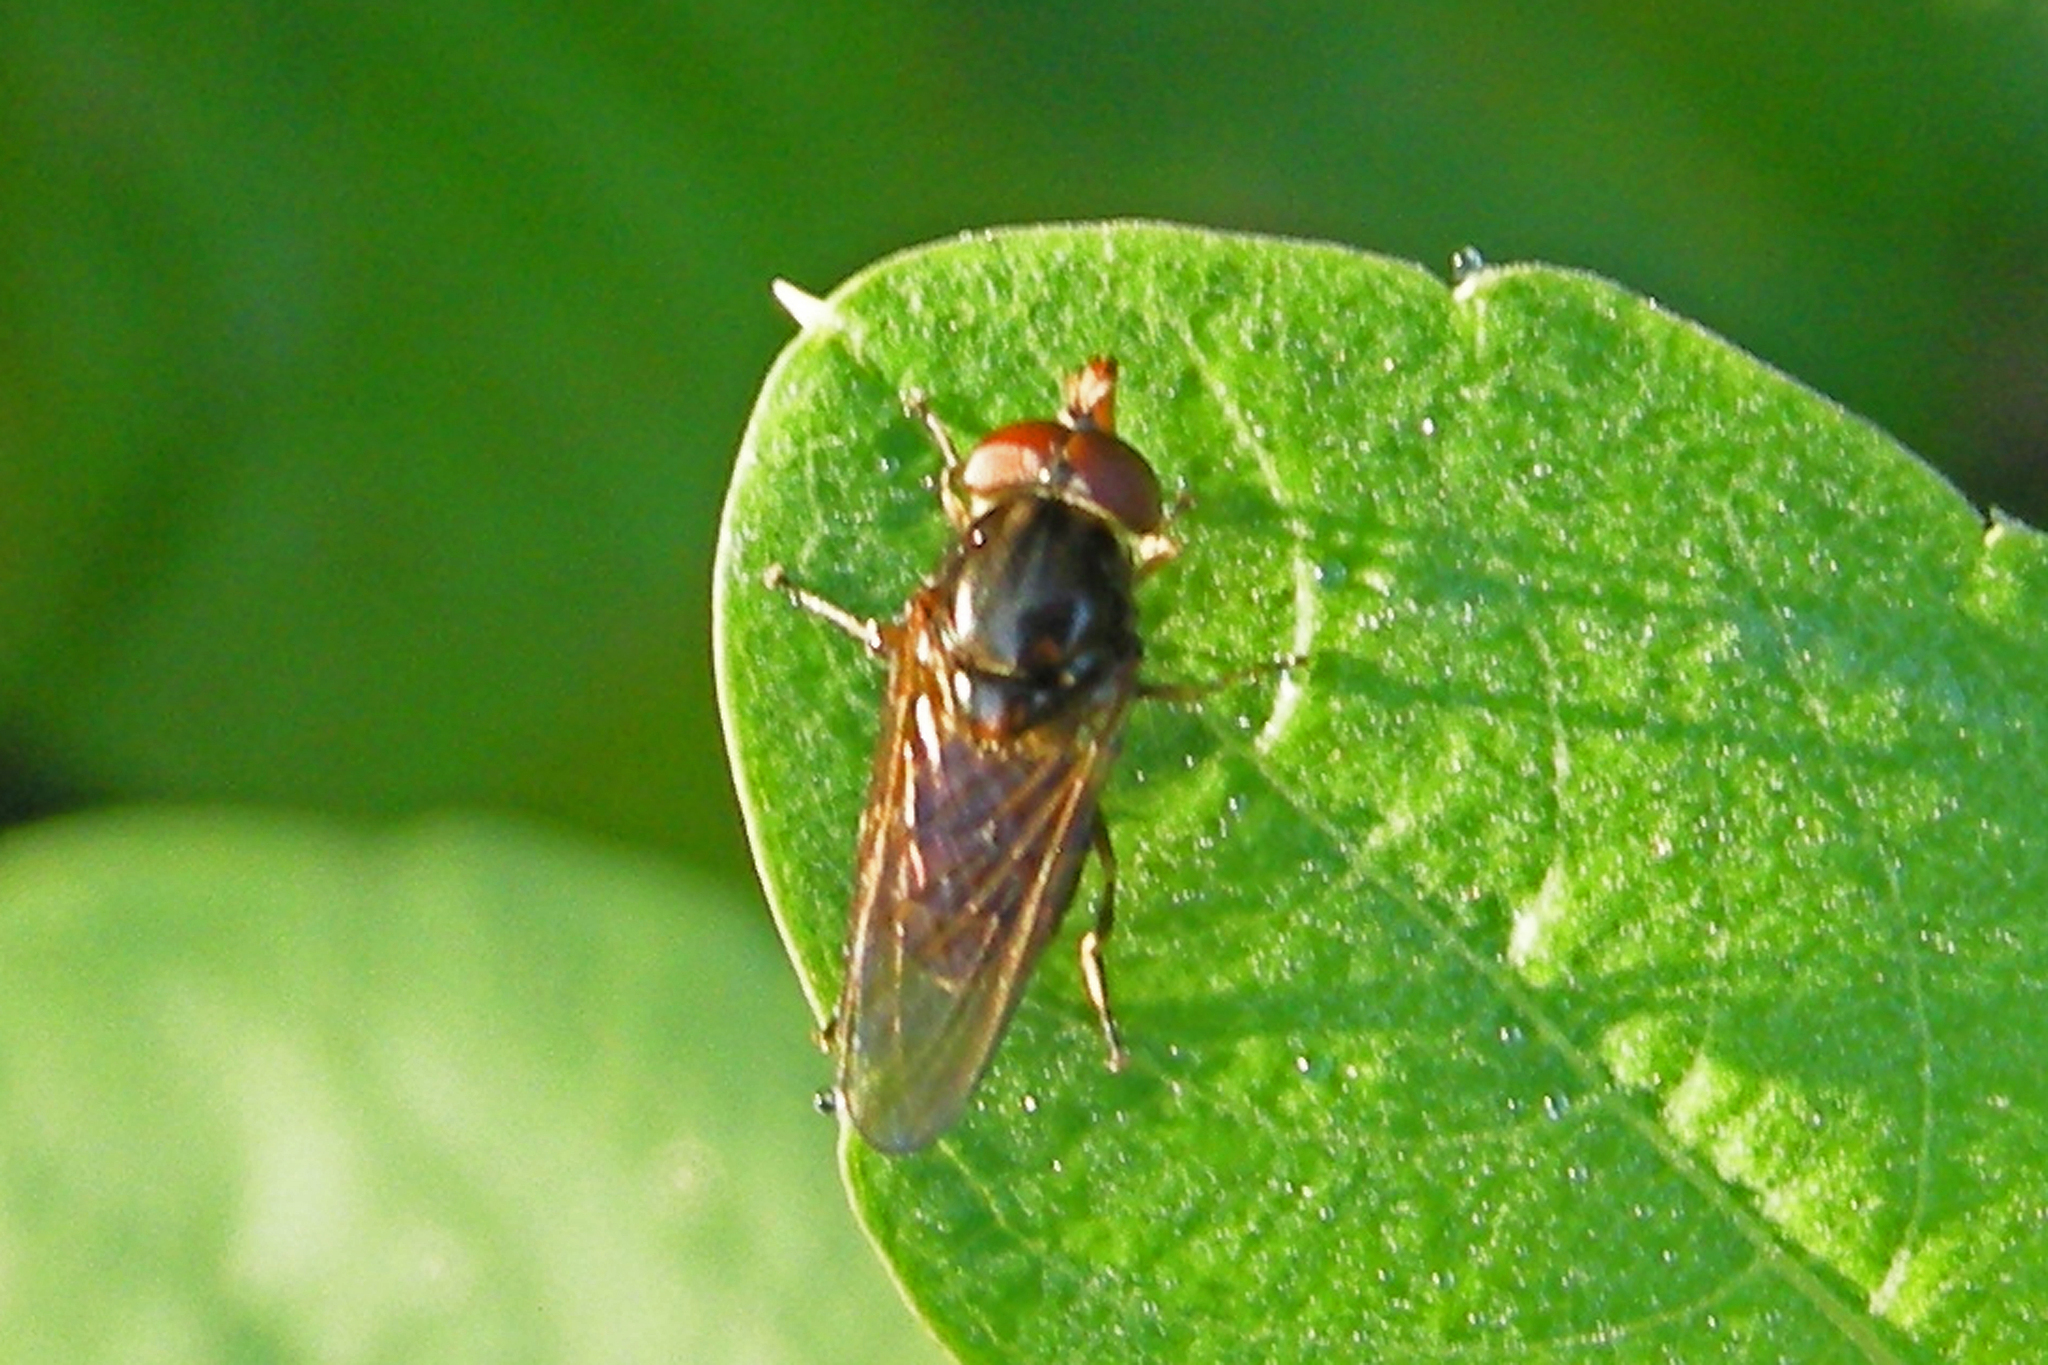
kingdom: Animalia
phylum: Arthropoda
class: Insecta
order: Diptera
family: Syrphidae
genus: Rhingia
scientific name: Rhingia nasica
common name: American snout fly
